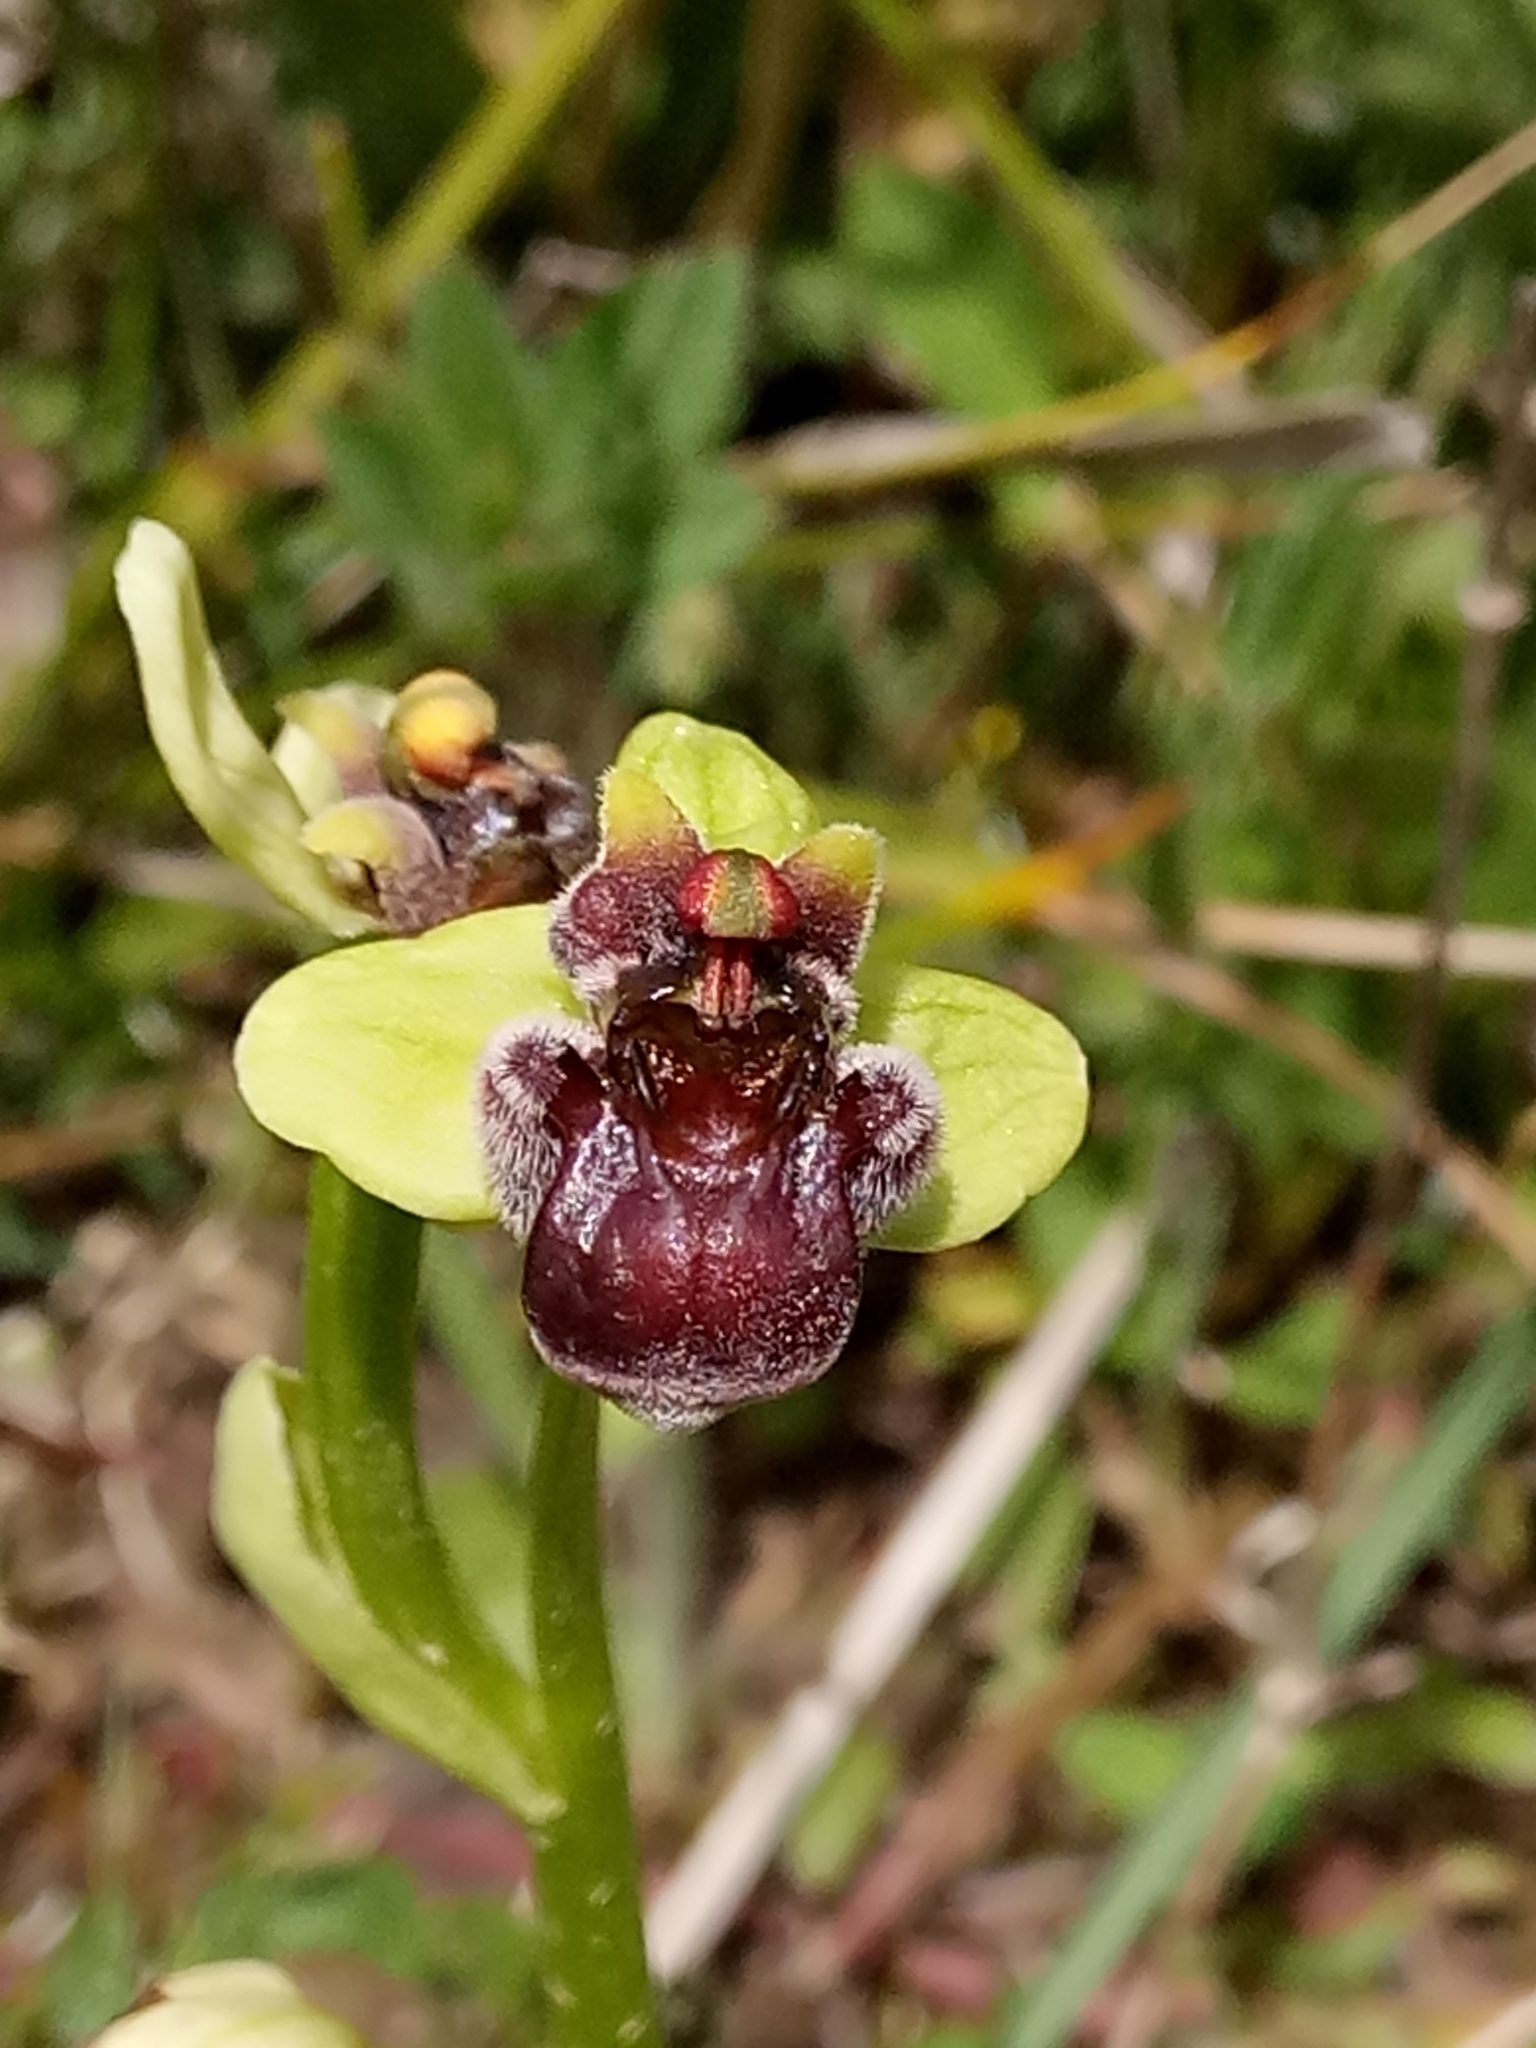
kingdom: Plantae
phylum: Tracheophyta
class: Liliopsida
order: Asparagales
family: Orchidaceae
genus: Ophrys
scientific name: Ophrys bombyliflora
